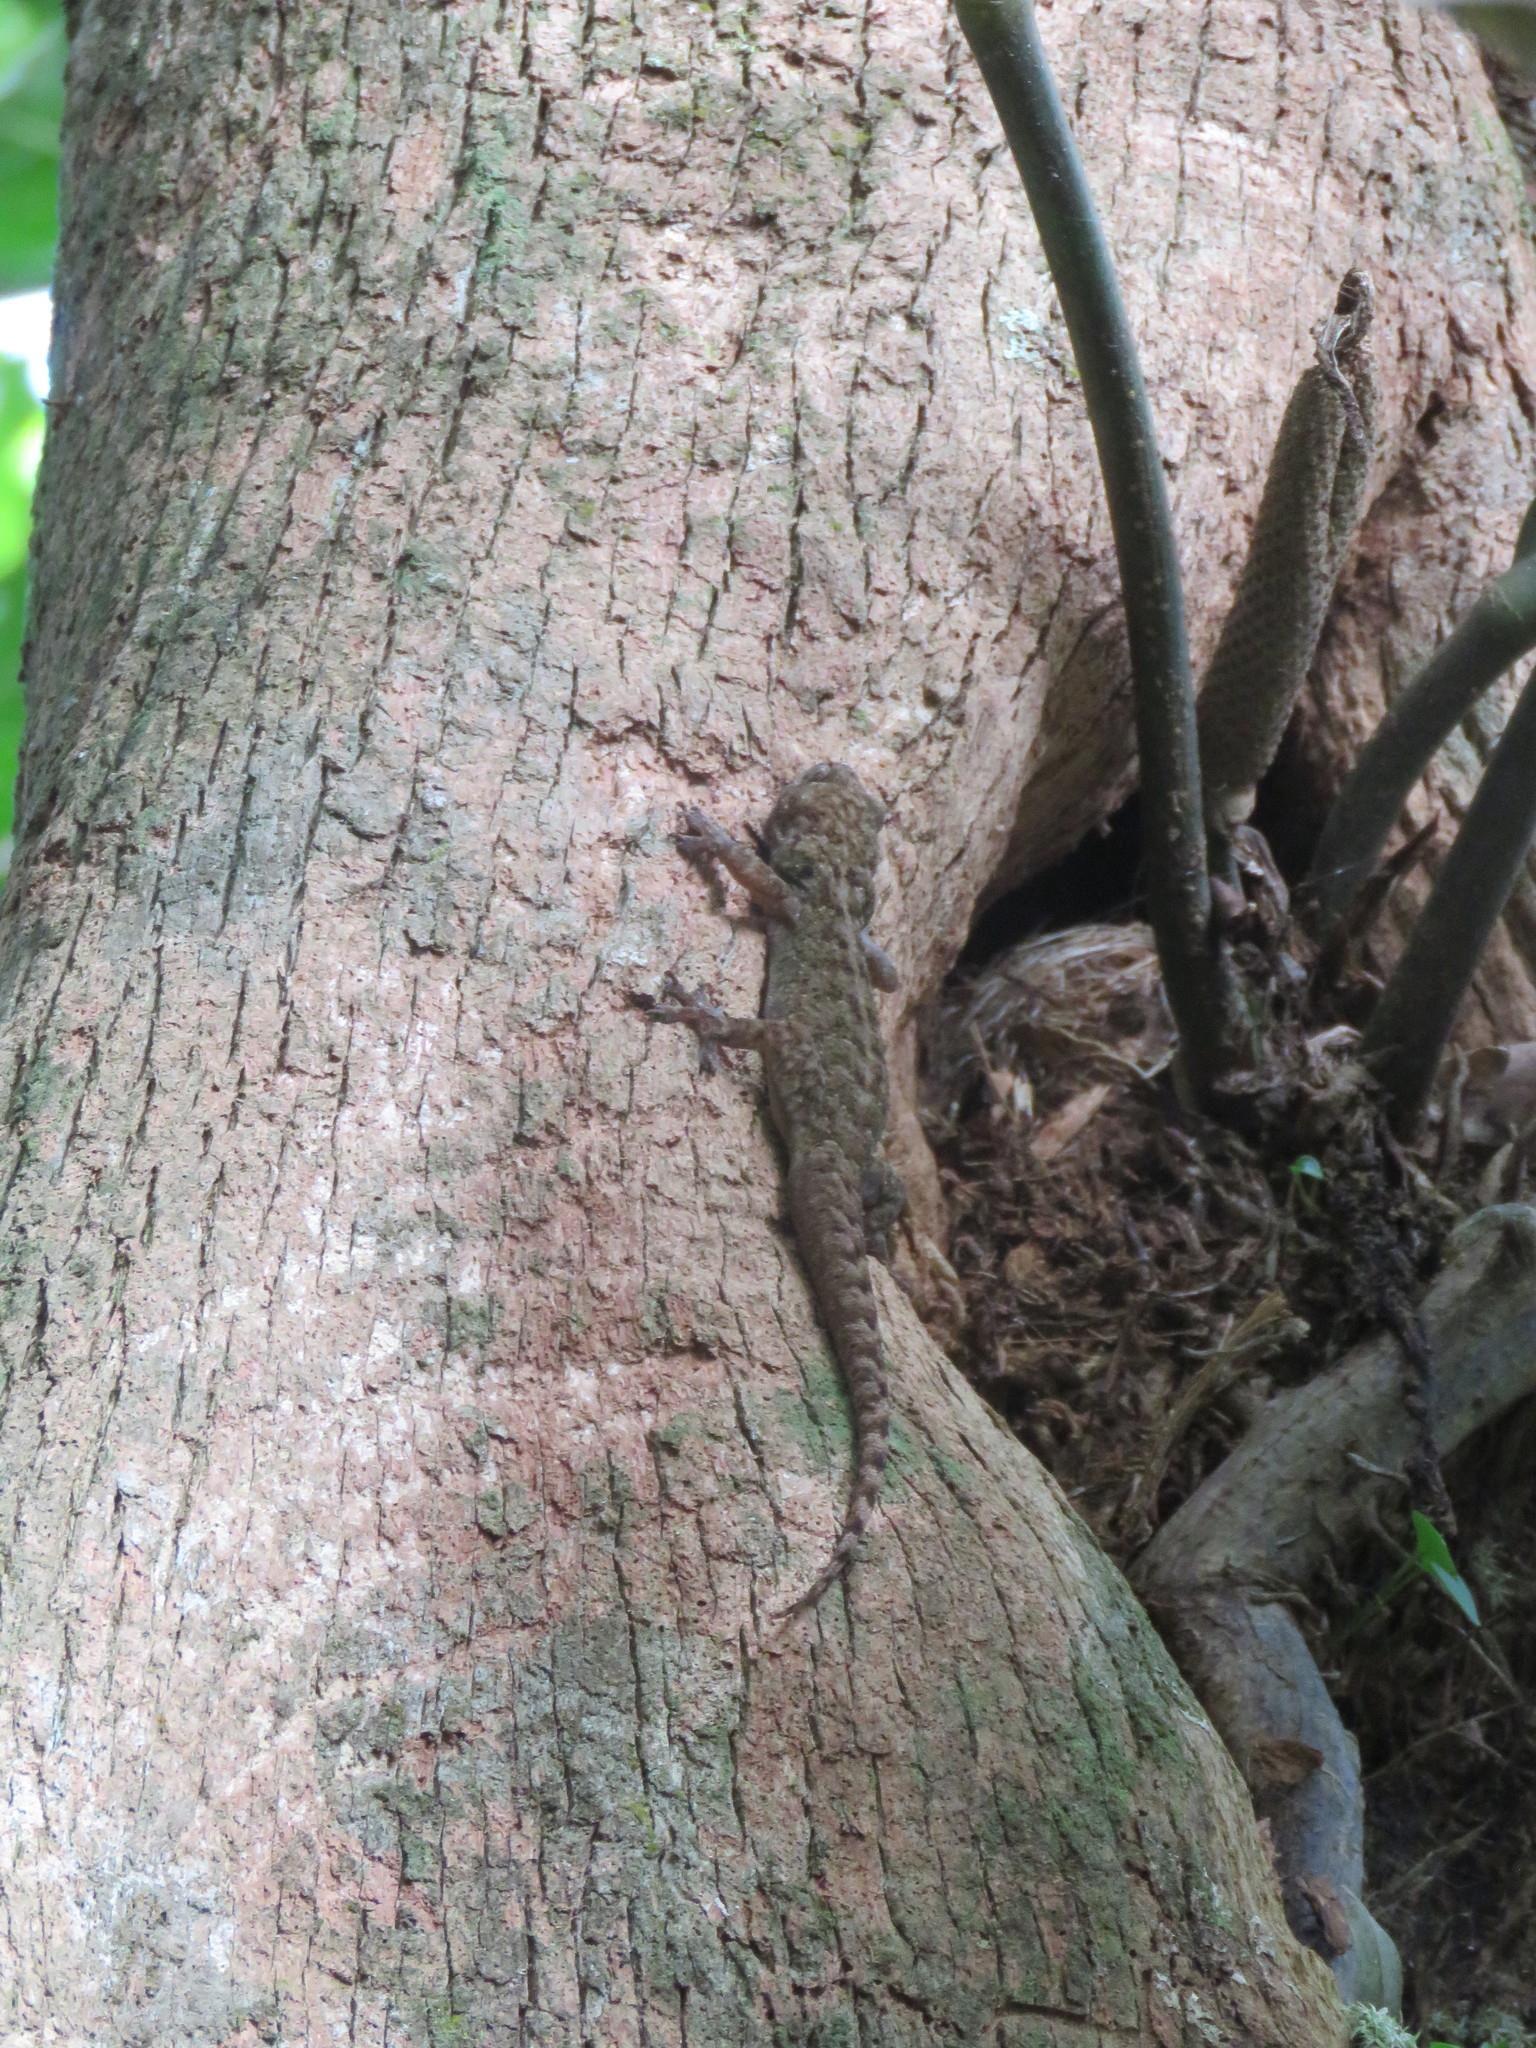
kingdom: Animalia
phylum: Chordata
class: Squamata
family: Phyllodactylidae
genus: Phyllopezus
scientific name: Phyllopezus przewalskii
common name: Przewalsky’s gecko
